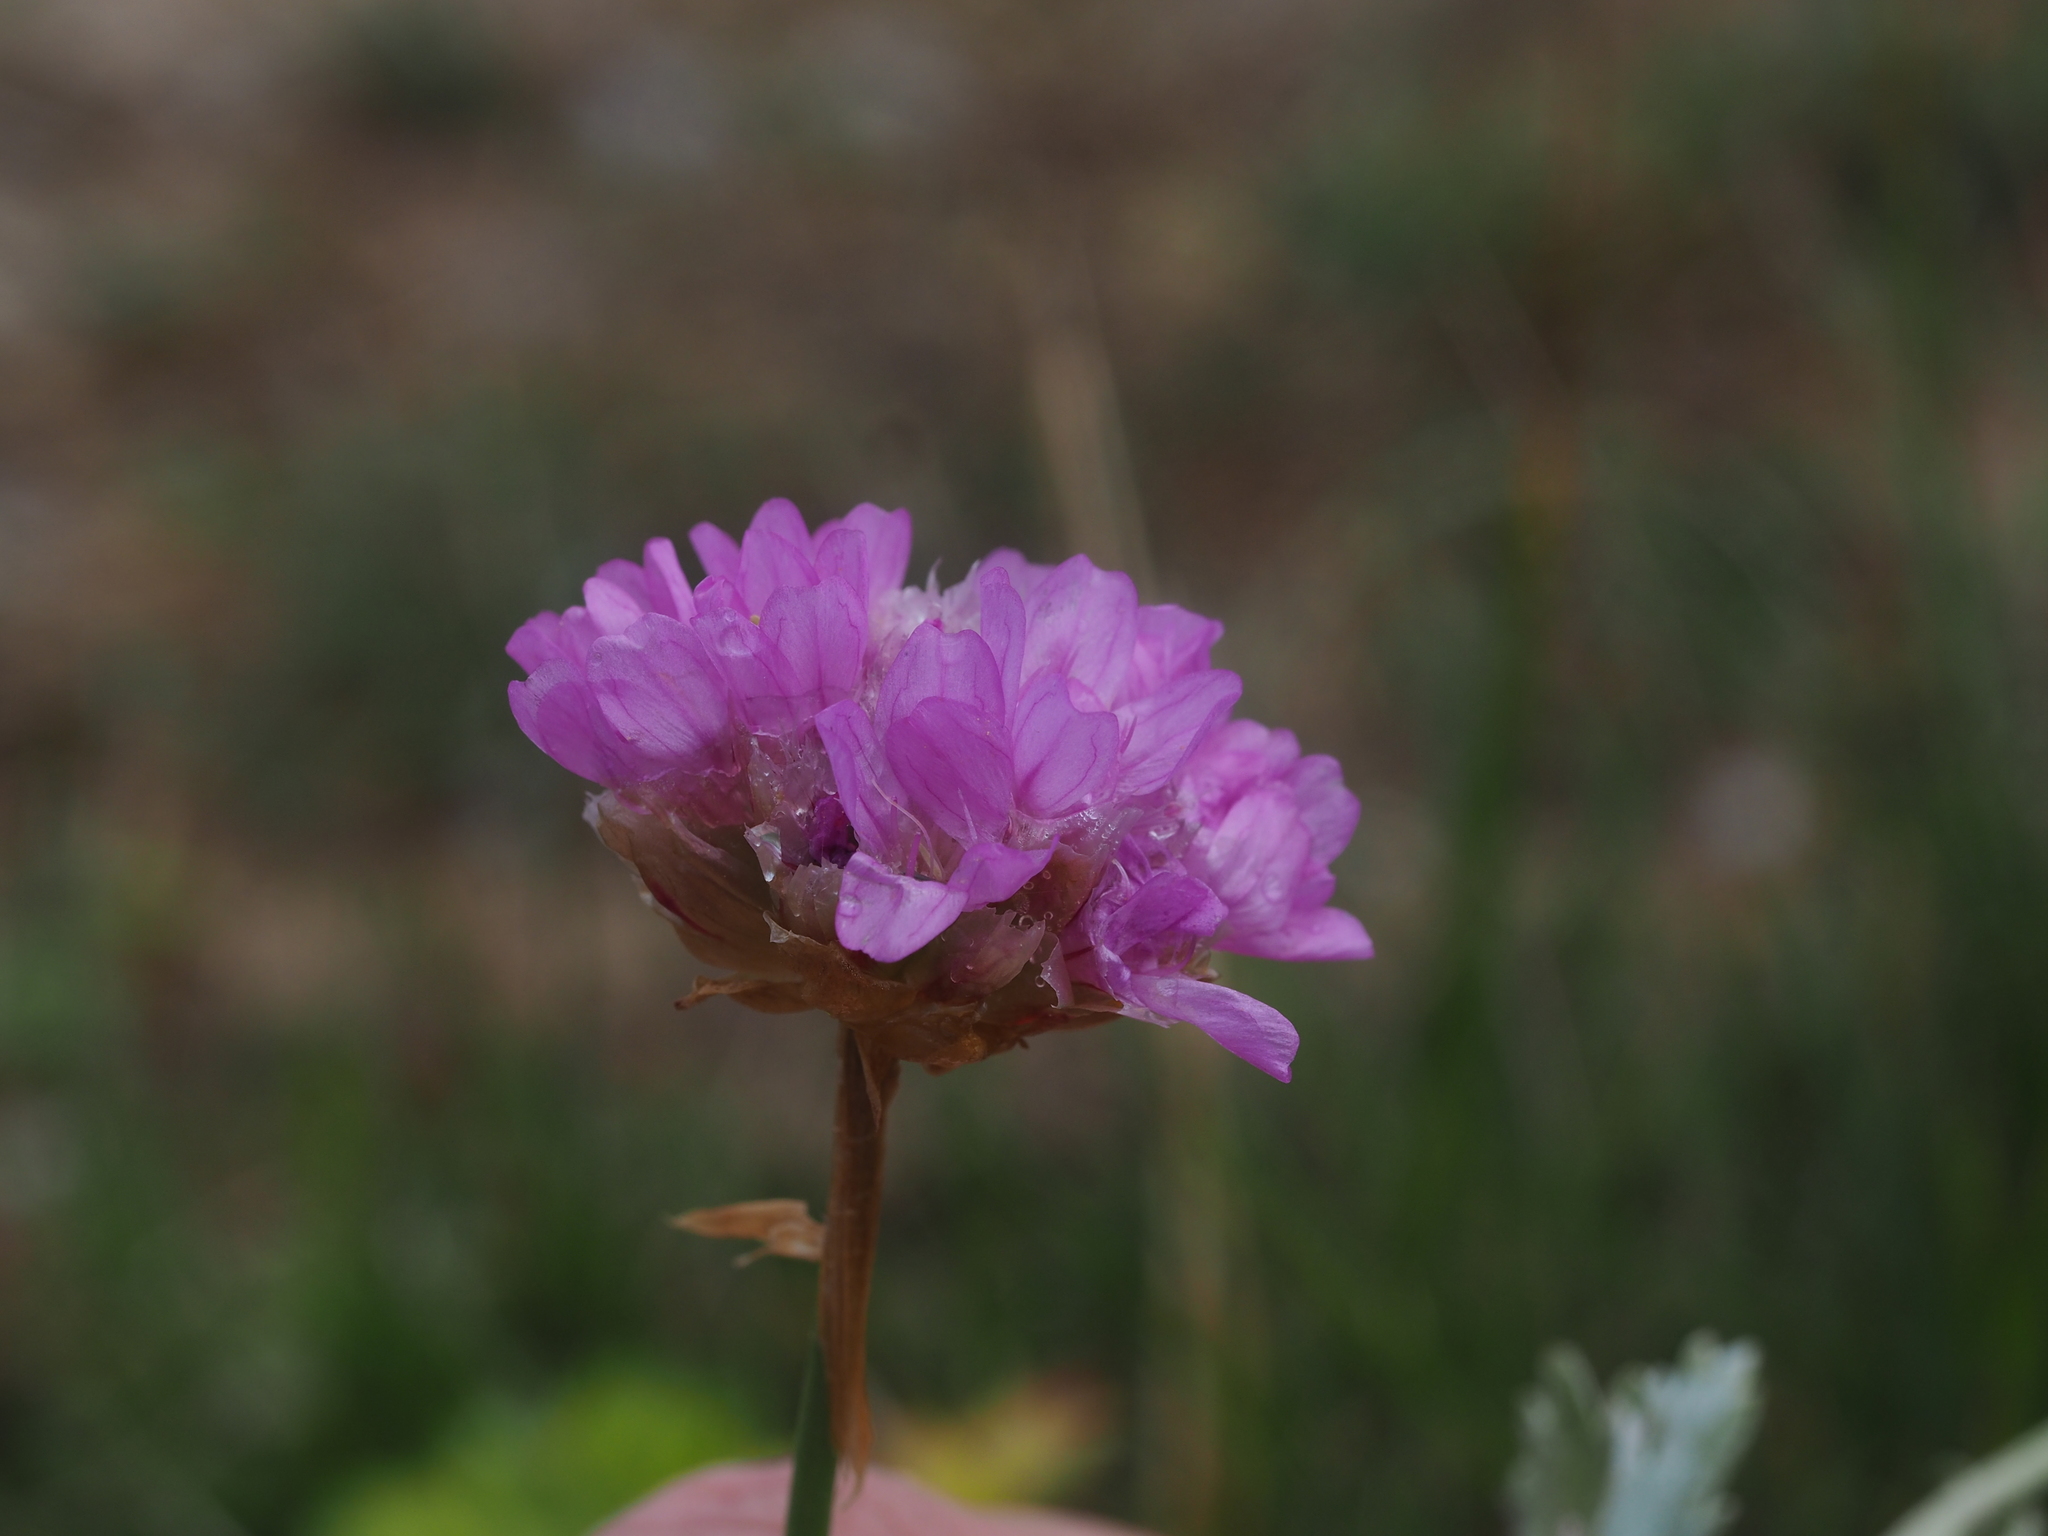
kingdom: Plantae
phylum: Tracheophyta
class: Magnoliopsida
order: Caryophyllales
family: Plumbaginaceae
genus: Armeria
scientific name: Armeria alpina
